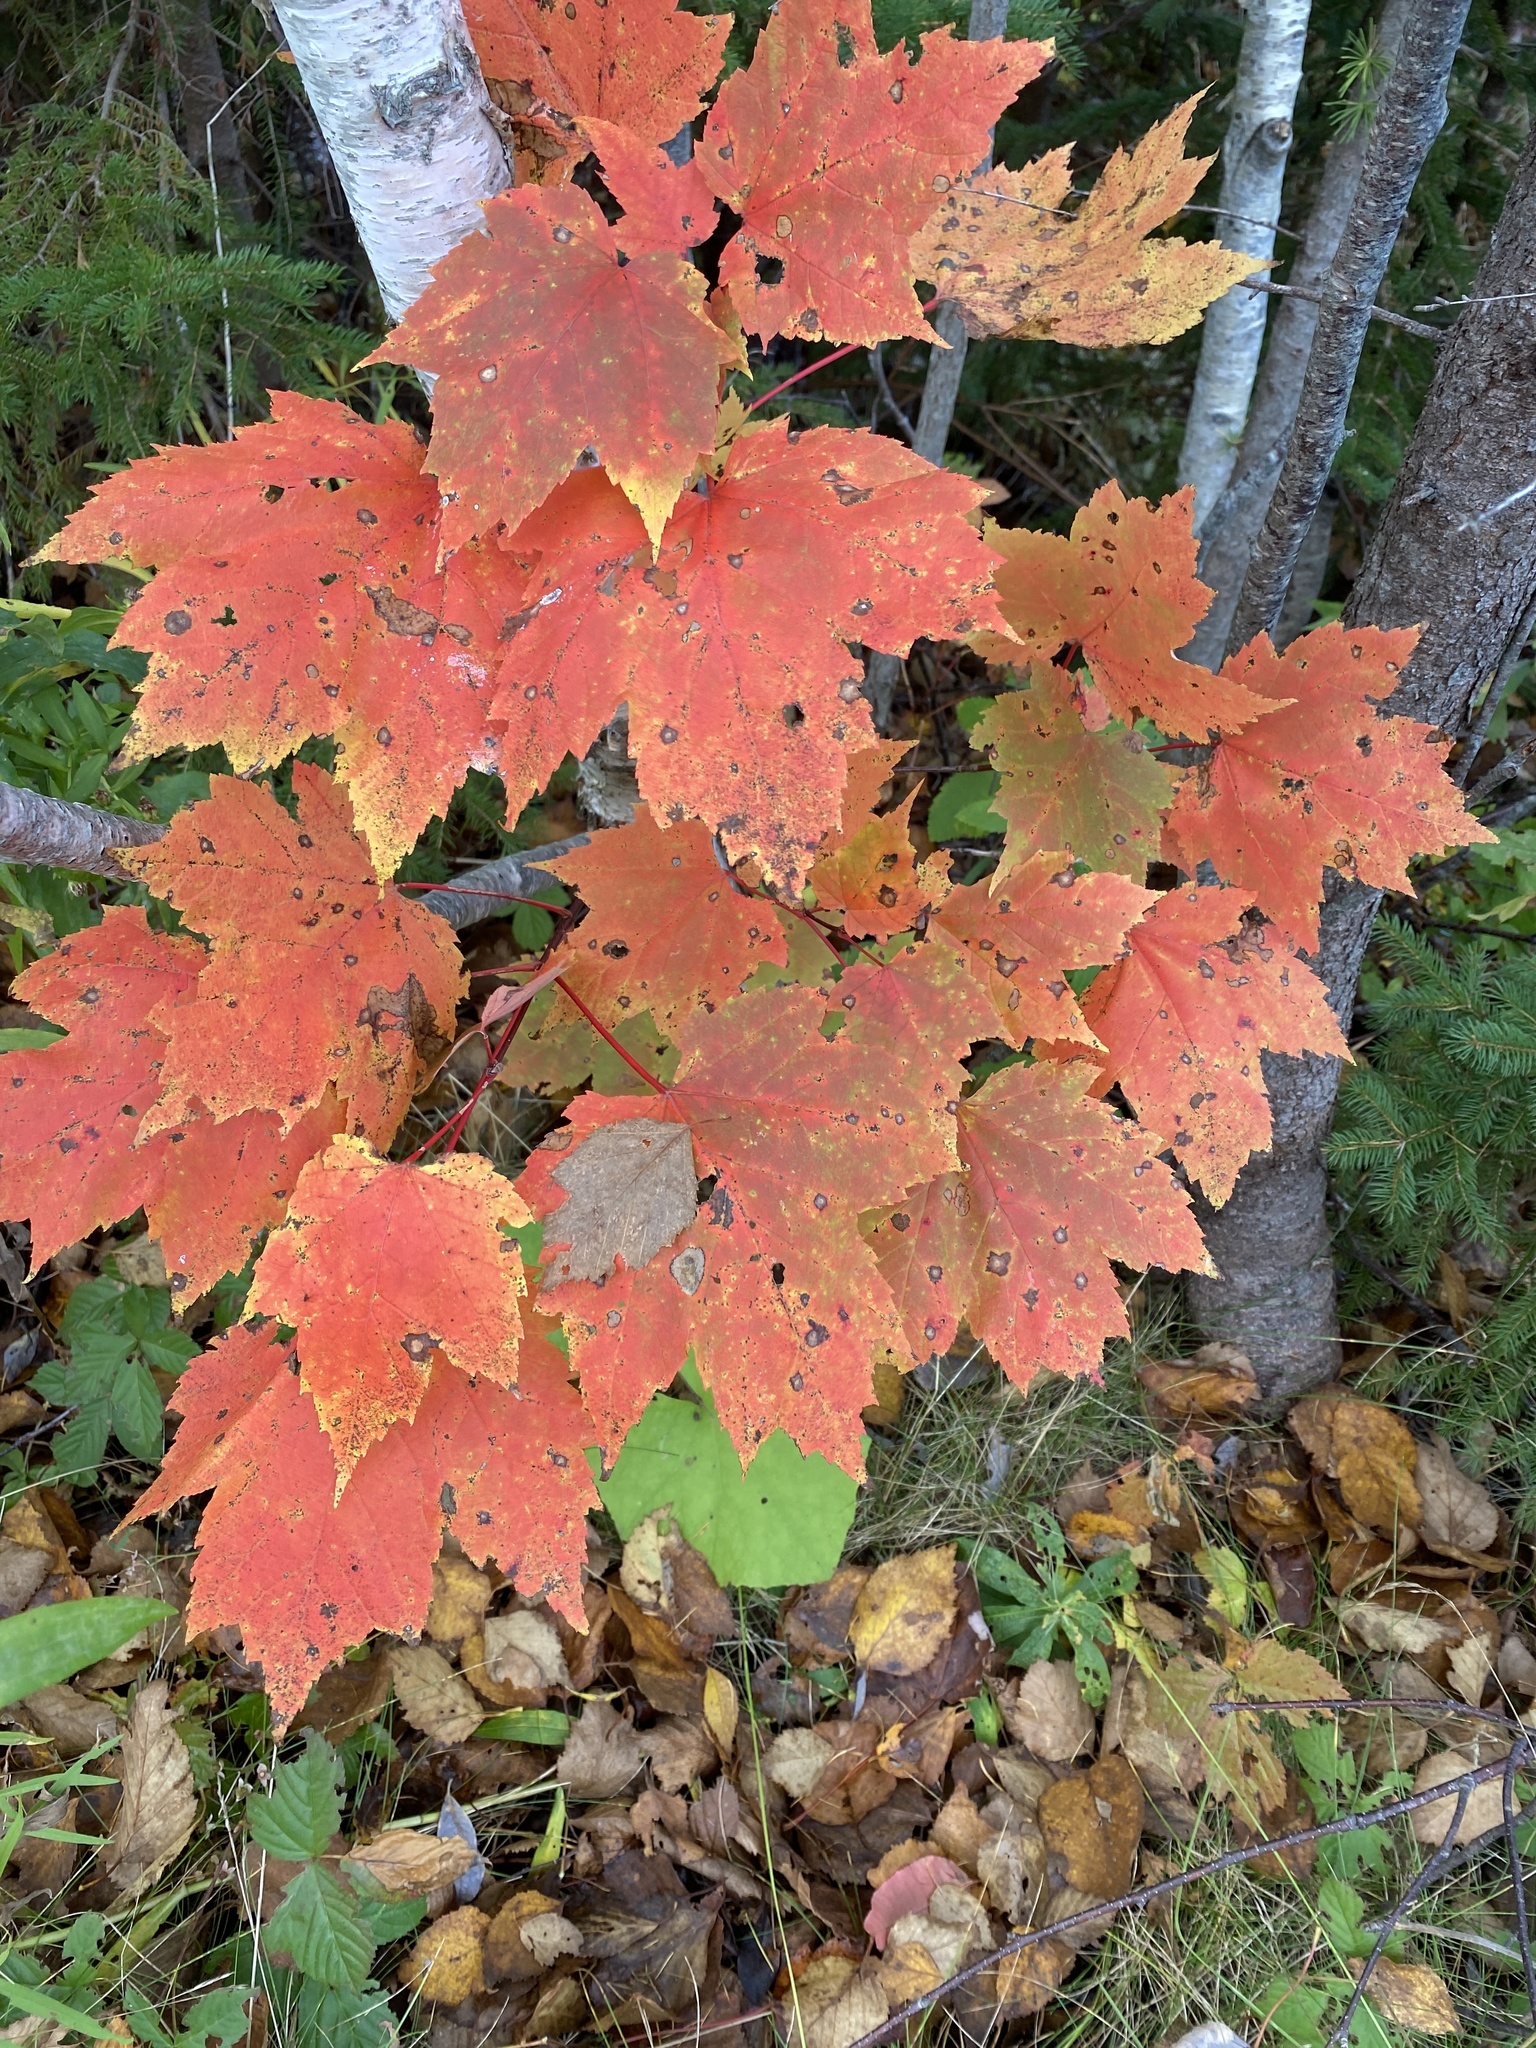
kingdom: Plantae
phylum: Tracheophyta
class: Magnoliopsida
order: Sapindales
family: Sapindaceae
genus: Acer
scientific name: Acer rubrum
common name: Red maple
